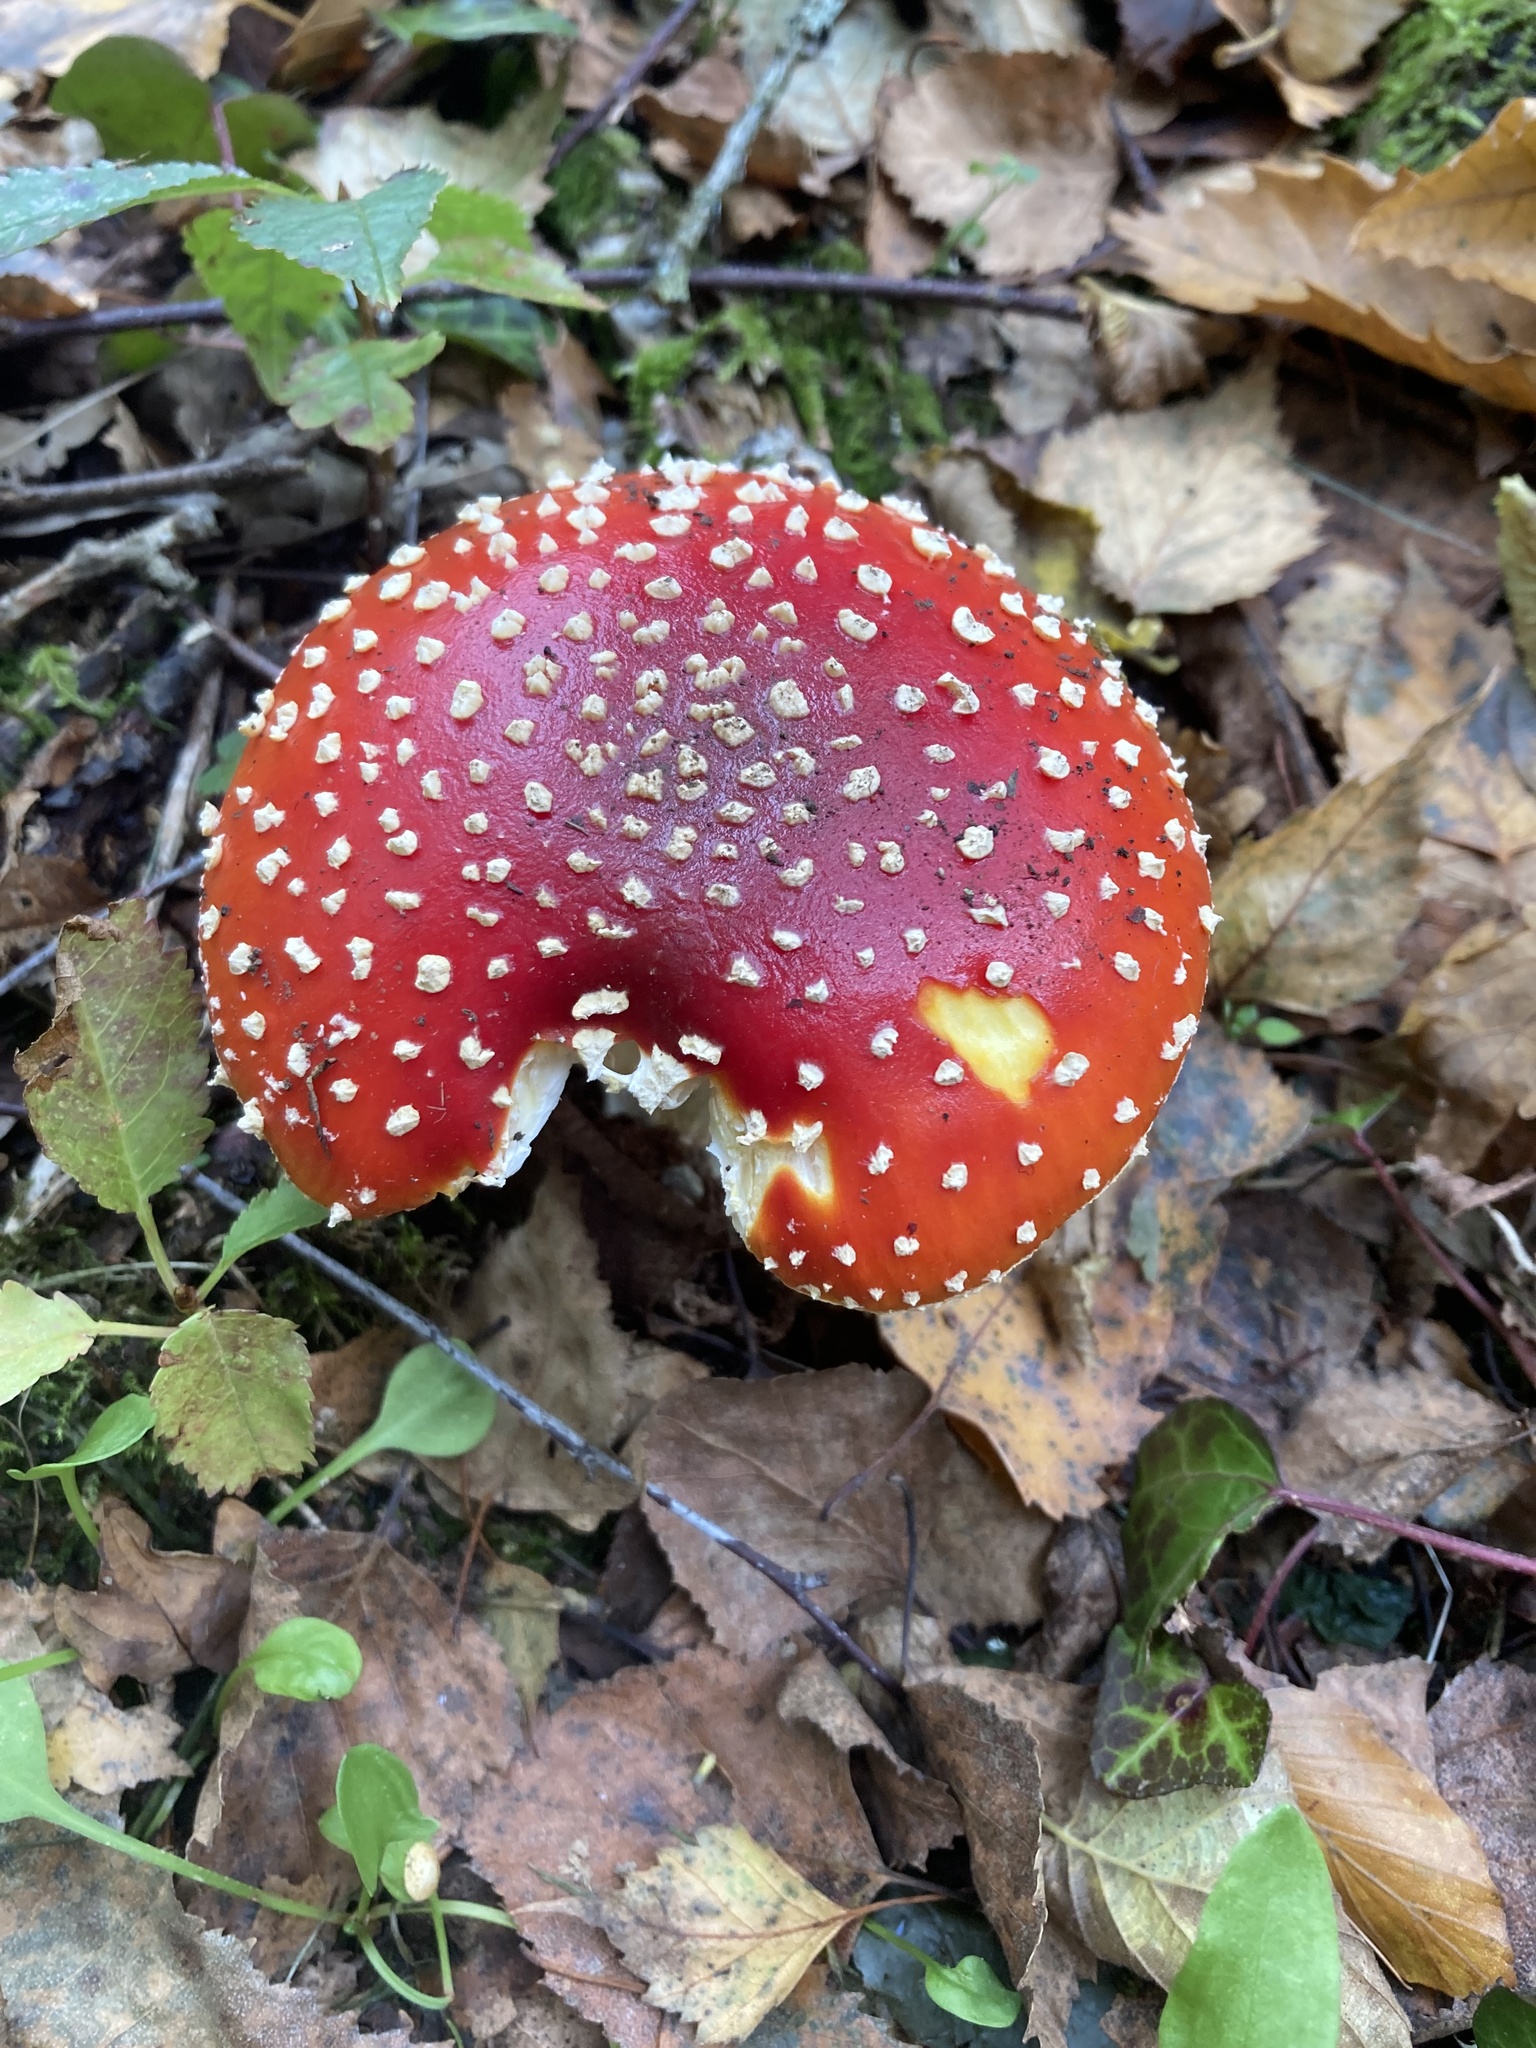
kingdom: Fungi
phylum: Basidiomycota
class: Agaricomycetes
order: Agaricales
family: Amanitaceae
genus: Amanita
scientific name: Amanita muscaria
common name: Fly agaric
